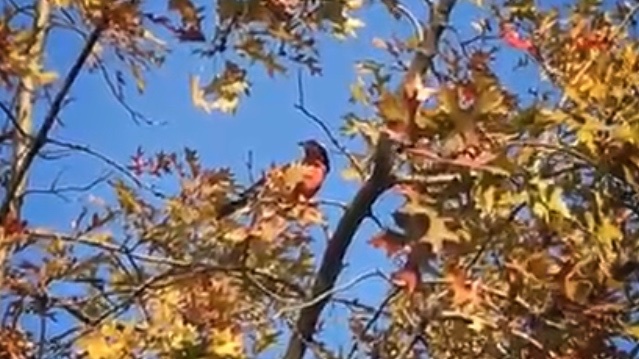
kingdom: Animalia
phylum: Chordata
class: Aves
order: Passeriformes
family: Icteridae
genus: Sturnella
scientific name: Sturnella loyca
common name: Long-tailed meadowlark
